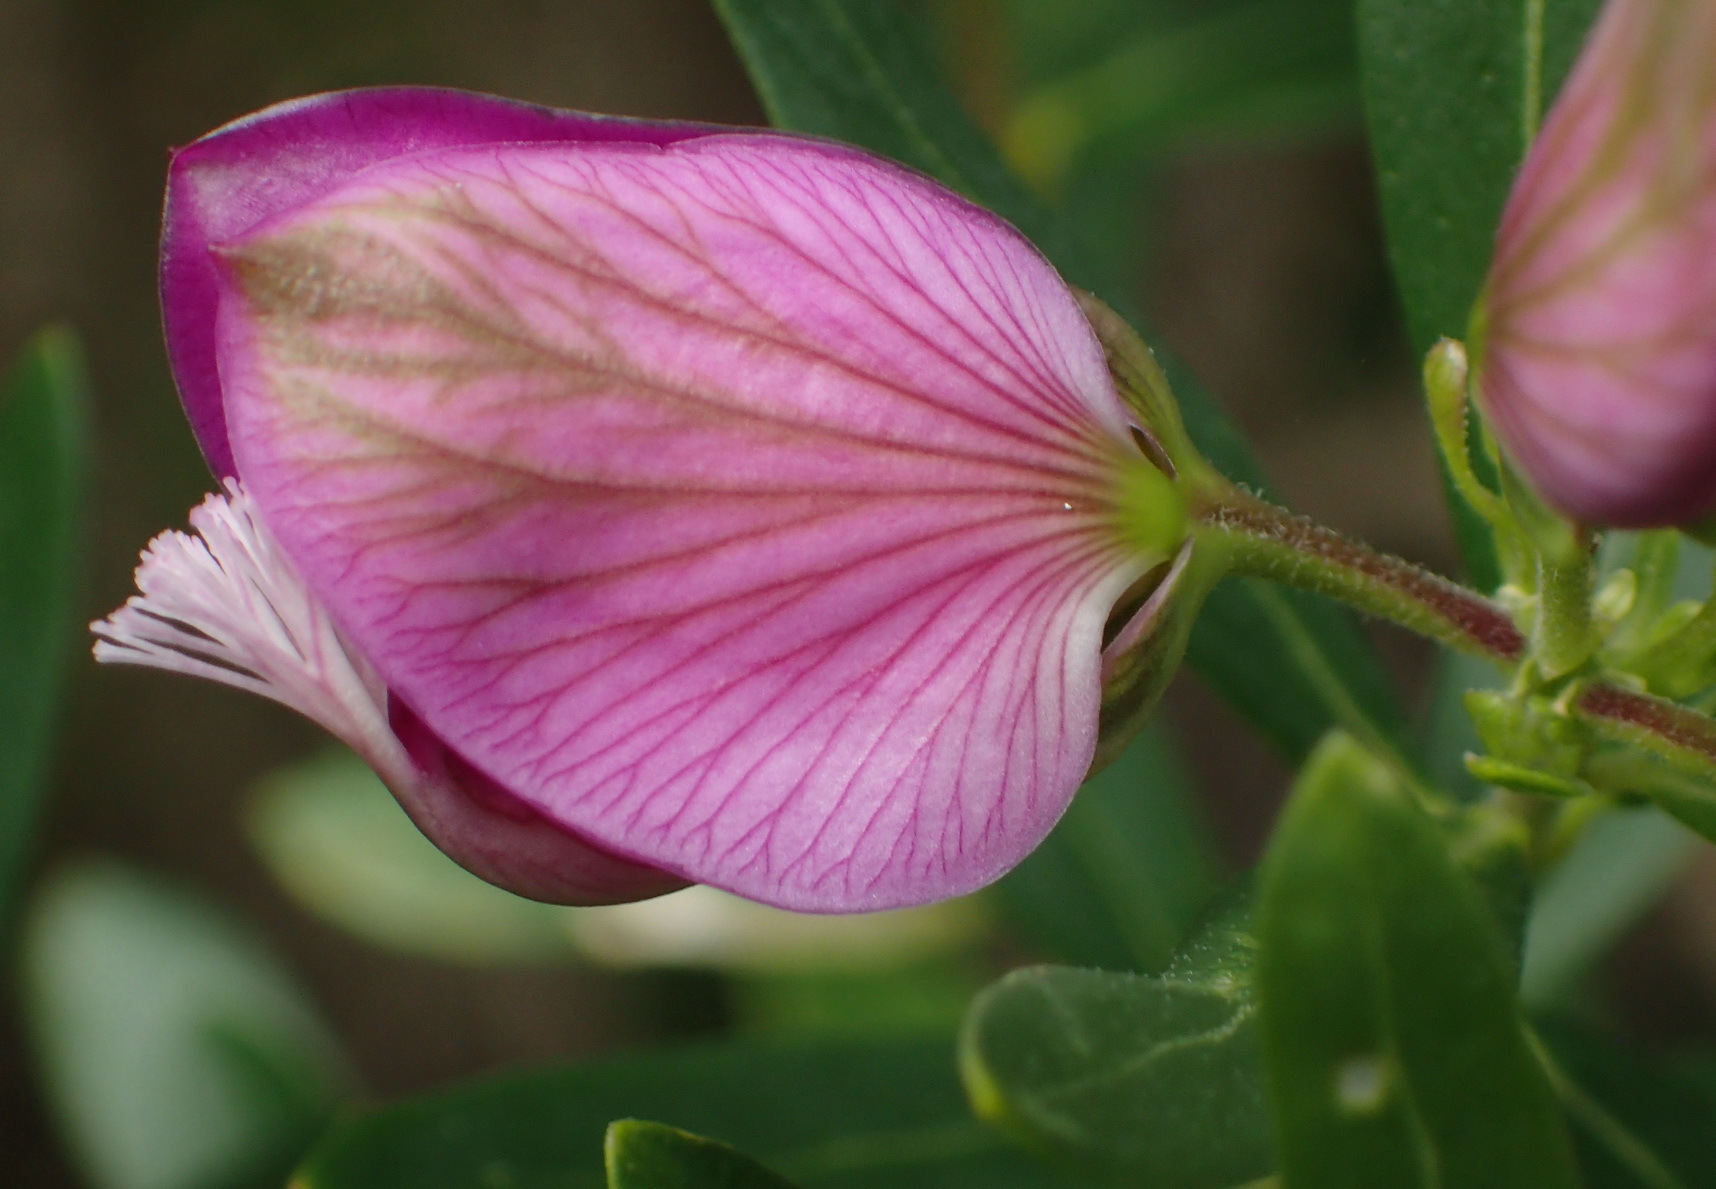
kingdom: Plantae
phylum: Tracheophyta
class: Magnoliopsida
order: Fabales
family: Polygalaceae
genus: Polygala
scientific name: Polygala myrtifolia
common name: Myrtle-leaf milkwort
